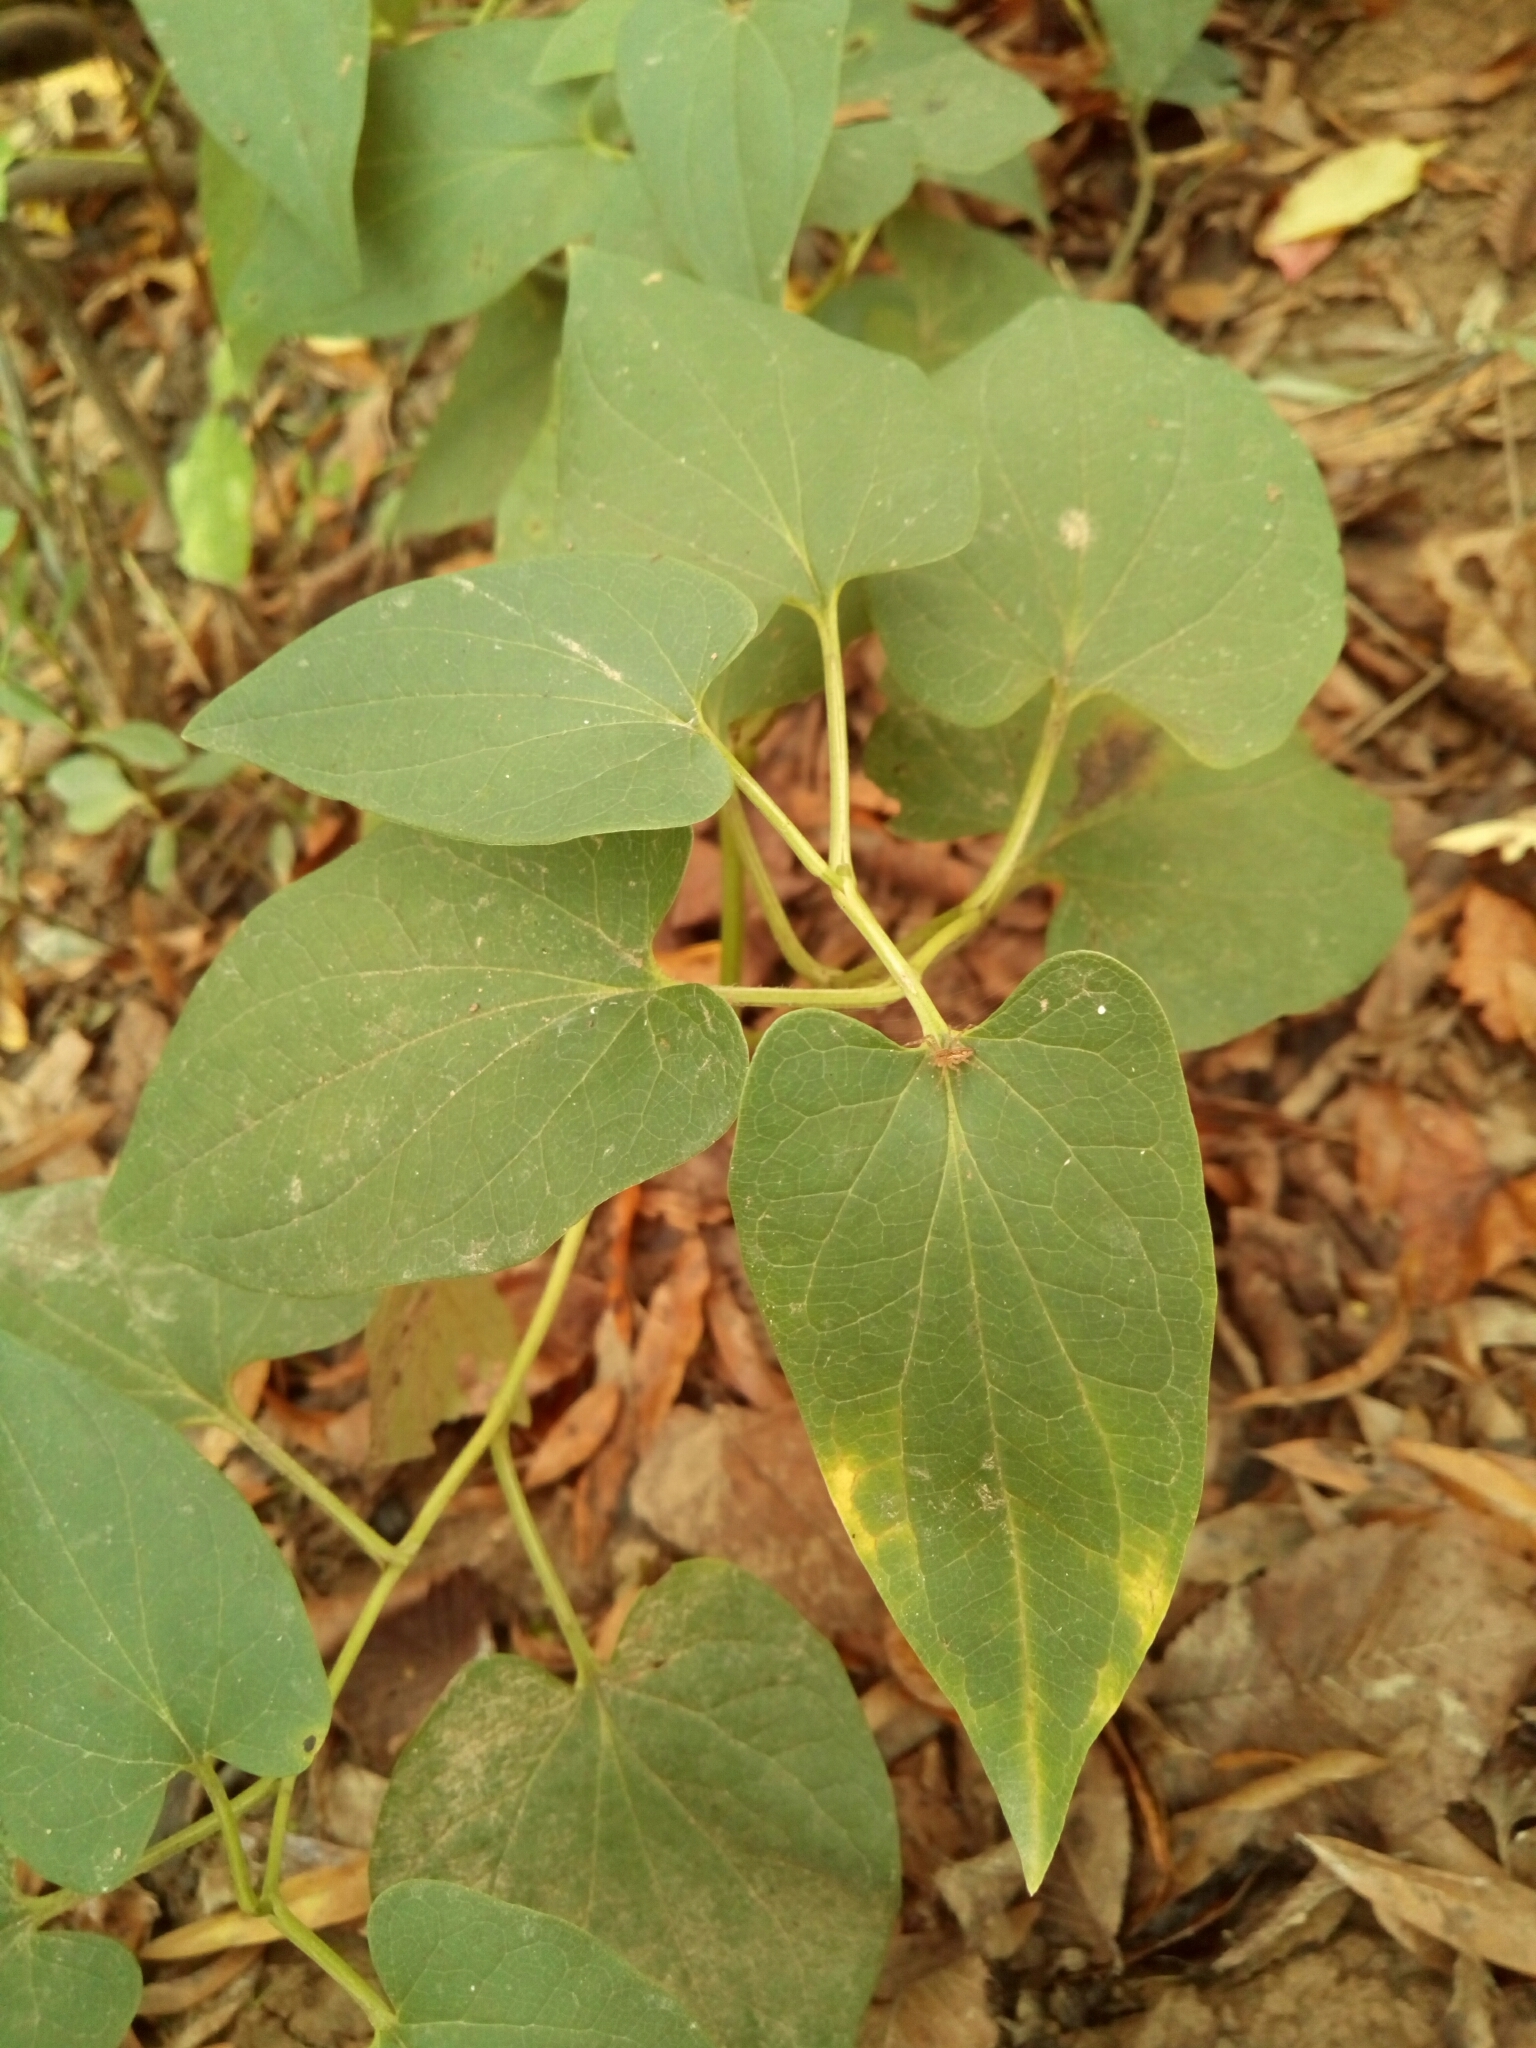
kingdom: Plantae
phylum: Tracheophyta
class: Magnoliopsida
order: Piperales
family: Saururaceae
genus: Saururus
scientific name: Saururus cernuus
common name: Lizard's-tail
